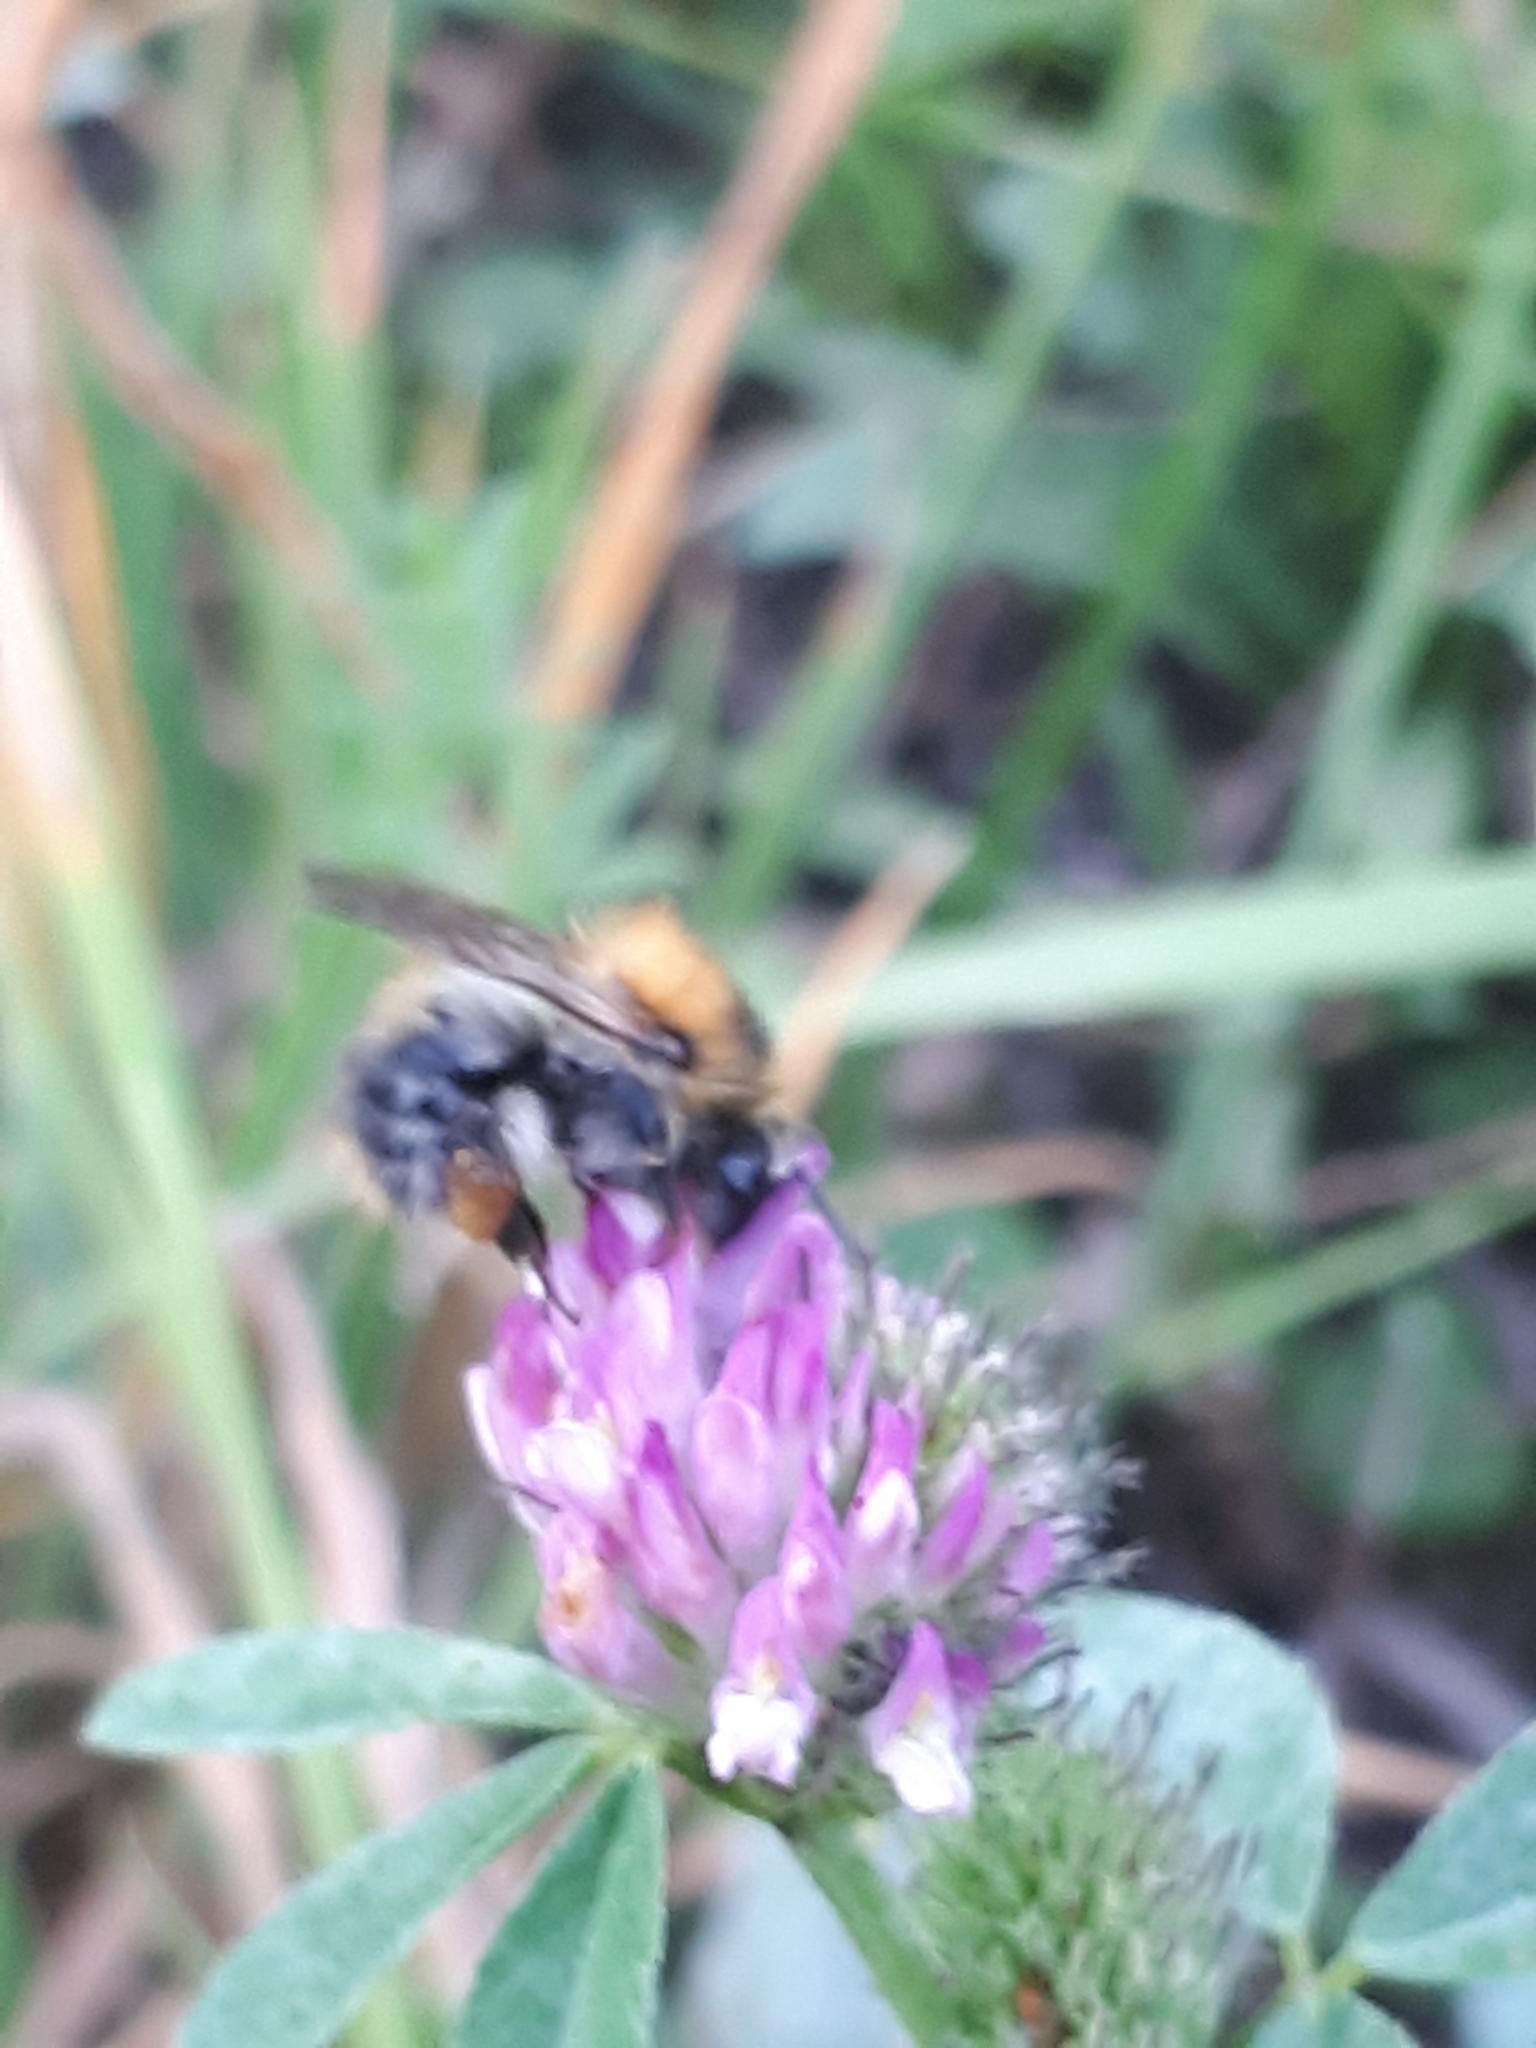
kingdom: Animalia
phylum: Arthropoda
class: Insecta
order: Hymenoptera
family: Apidae
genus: Bombus
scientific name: Bombus pascuorum
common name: Common carder bee
